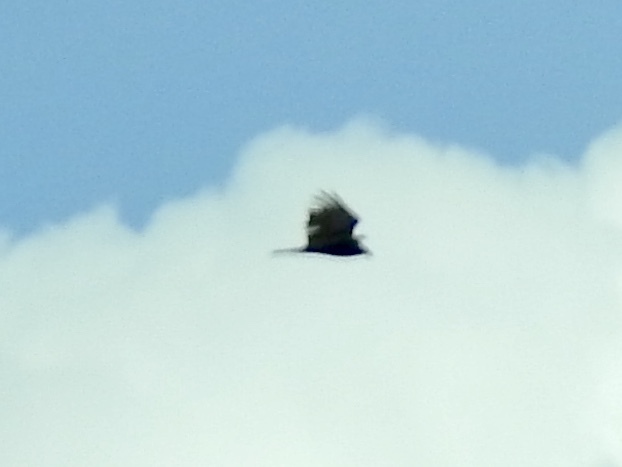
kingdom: Animalia
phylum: Chordata
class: Aves
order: Accipitriformes
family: Cathartidae
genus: Cathartes
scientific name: Cathartes aura
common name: Turkey vulture
